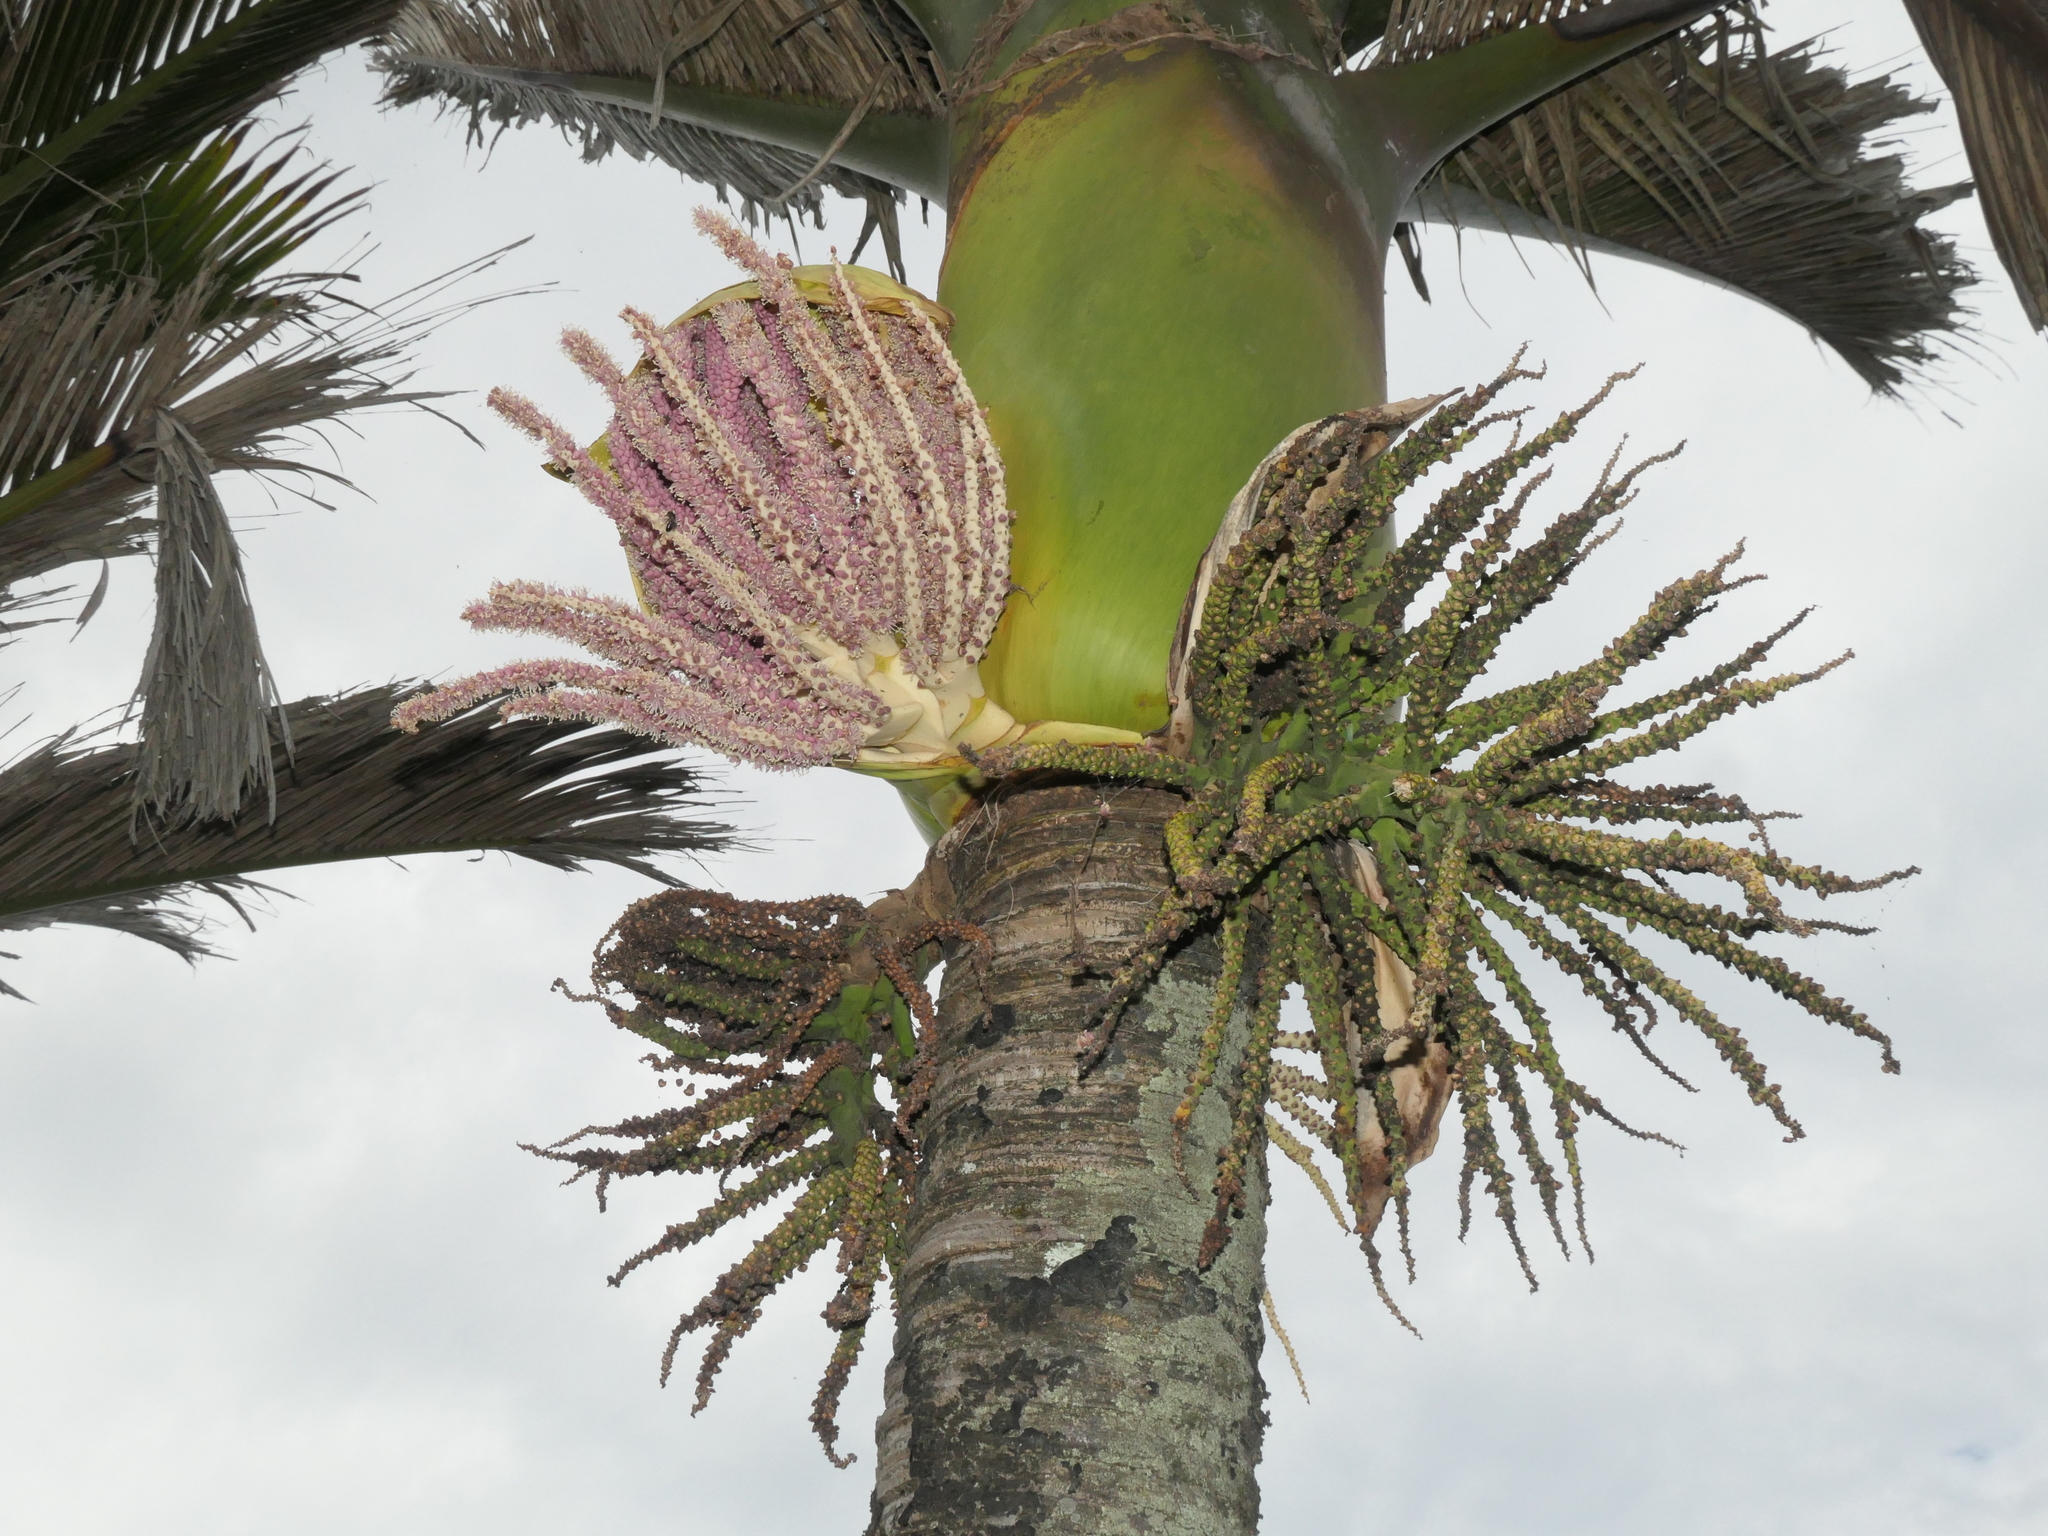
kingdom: Plantae
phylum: Tracheophyta
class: Liliopsida
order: Arecales
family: Arecaceae
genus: Rhopalostylis
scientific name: Rhopalostylis sapida
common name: Feather-duster palm
